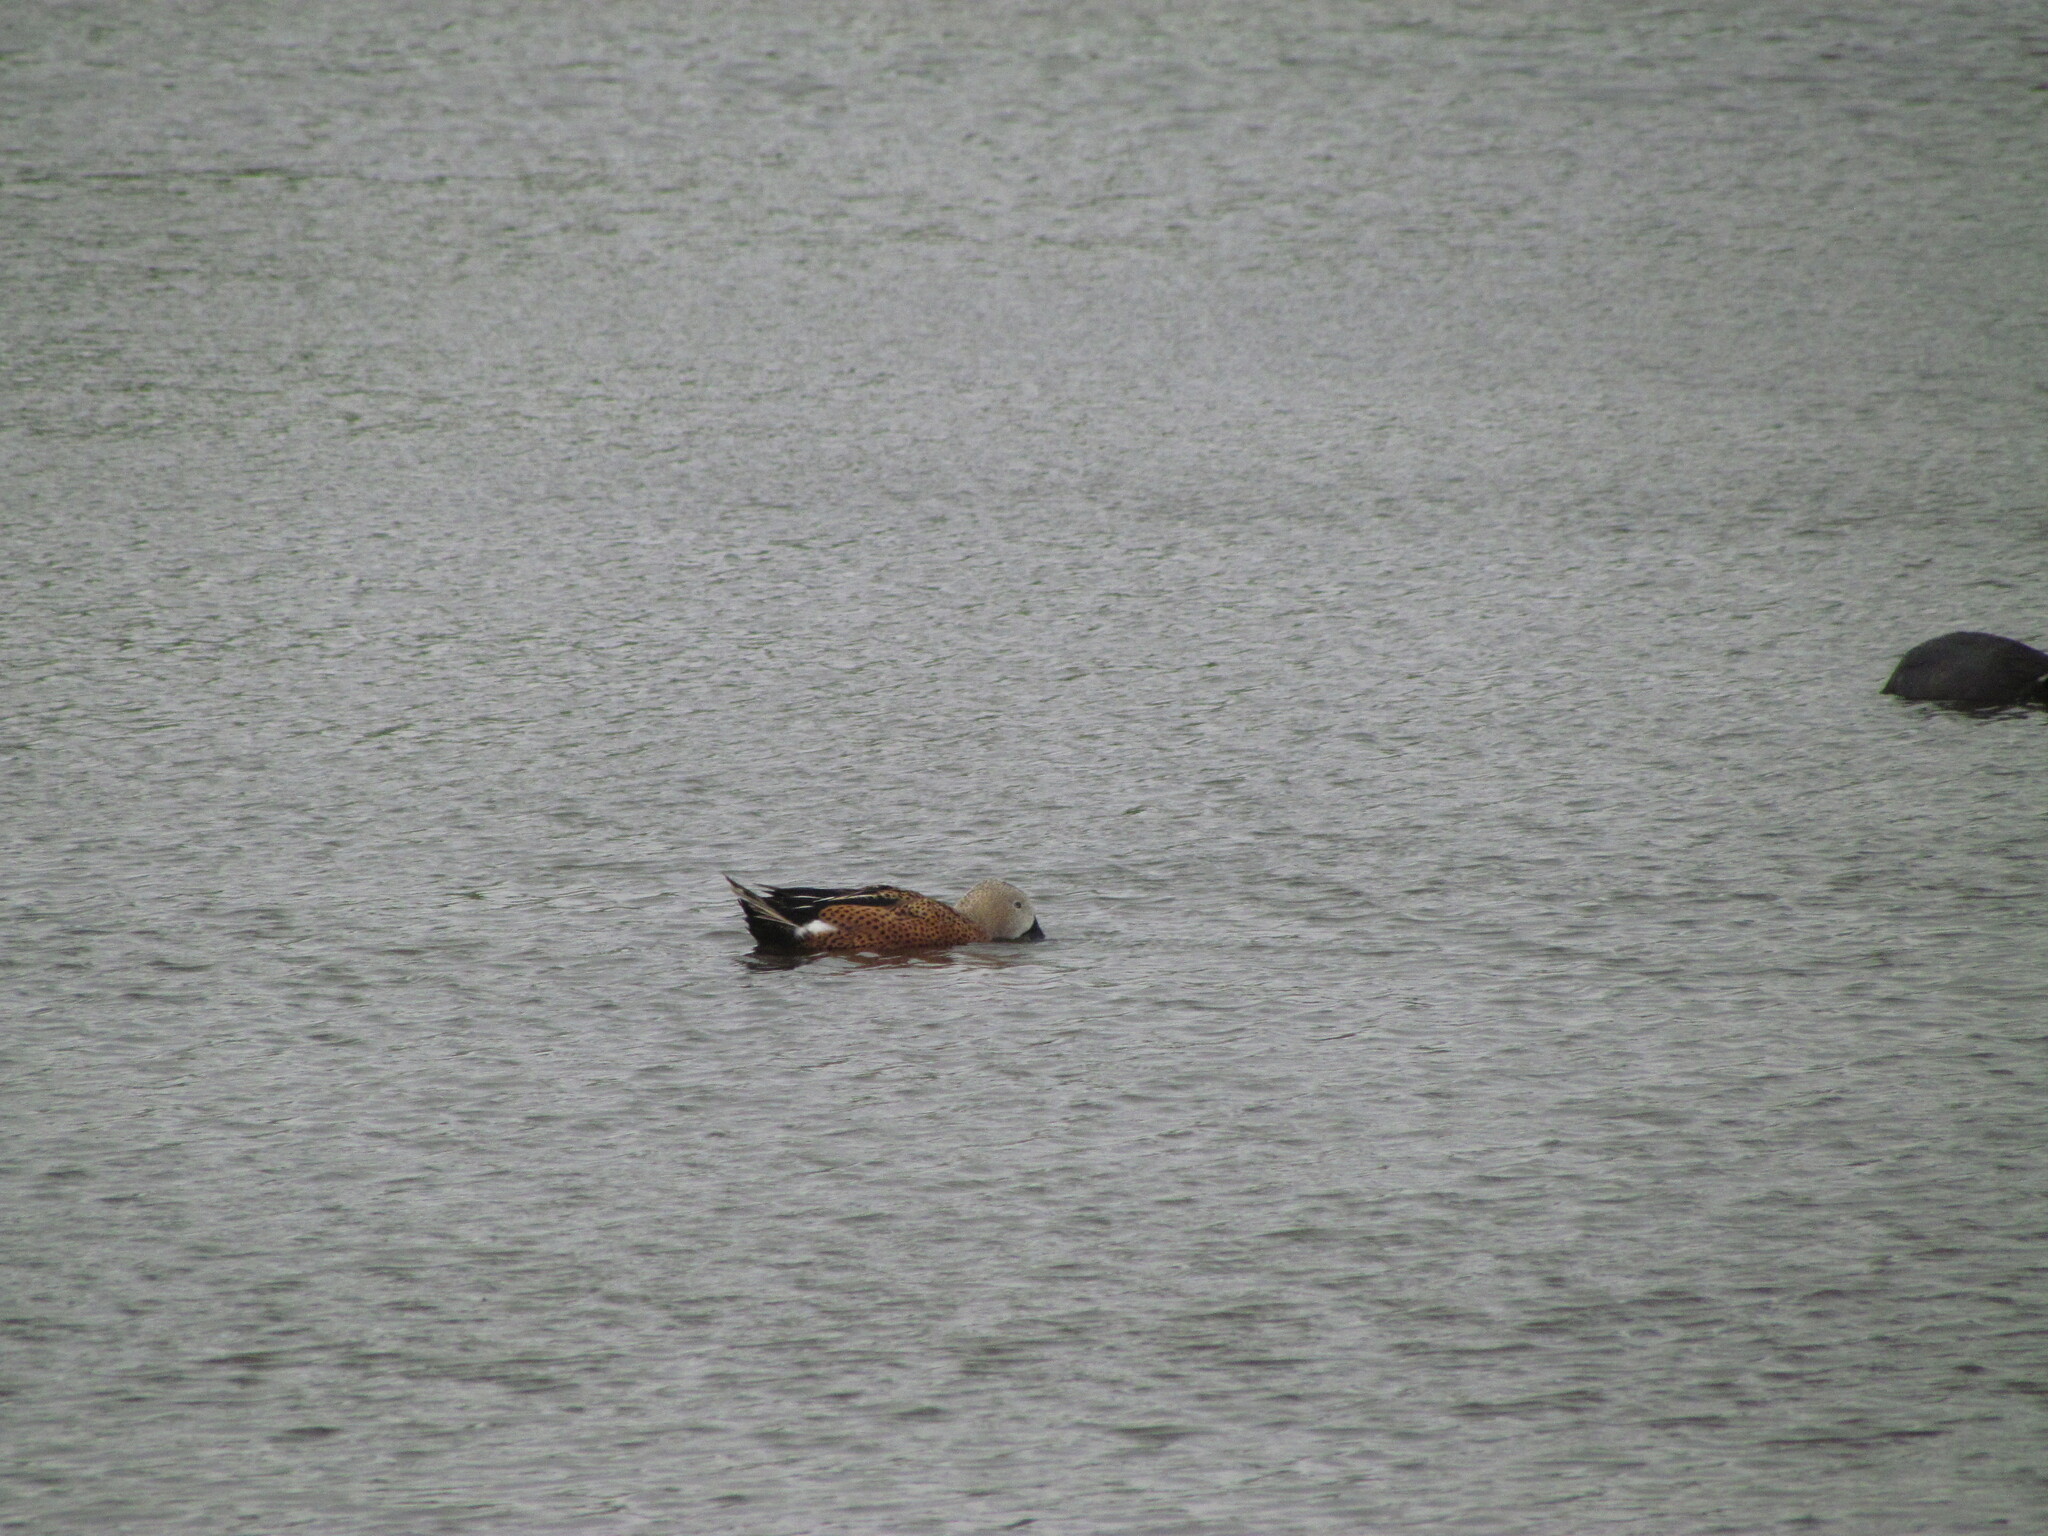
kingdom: Animalia
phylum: Chordata
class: Aves
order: Anseriformes
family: Anatidae
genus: Spatula
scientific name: Spatula platalea
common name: Red shoveler
